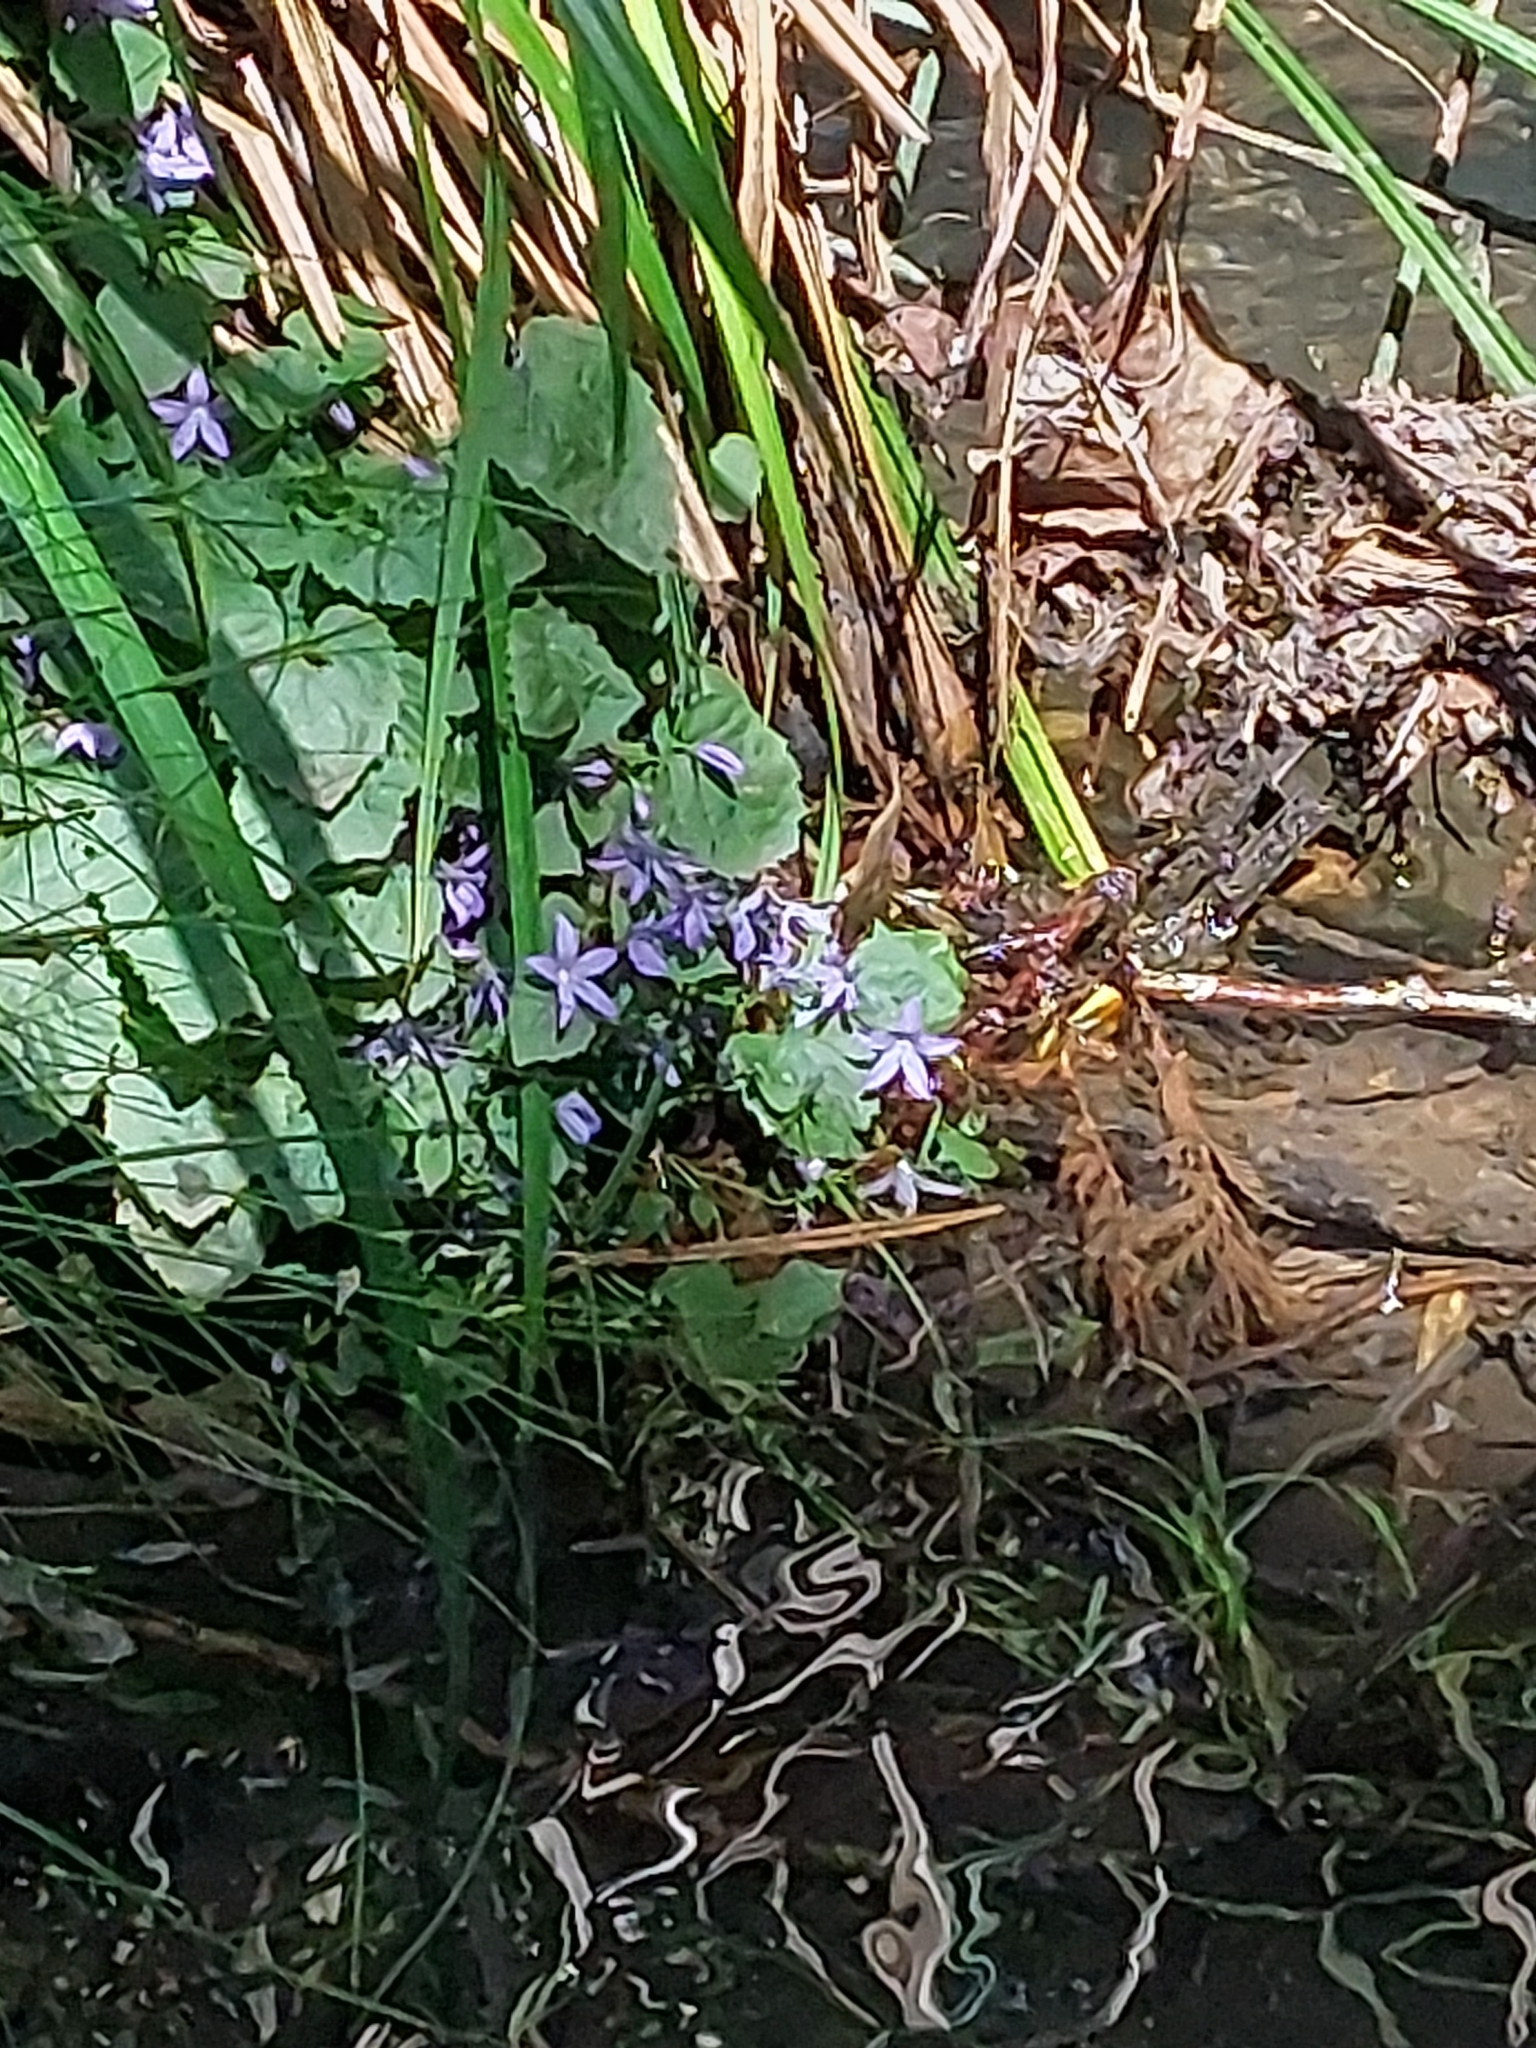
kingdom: Plantae
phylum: Tracheophyta
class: Magnoliopsida
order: Asterales
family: Campanulaceae
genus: Campanula
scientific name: Campanula poscharskyana
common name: Trailing bellflower
